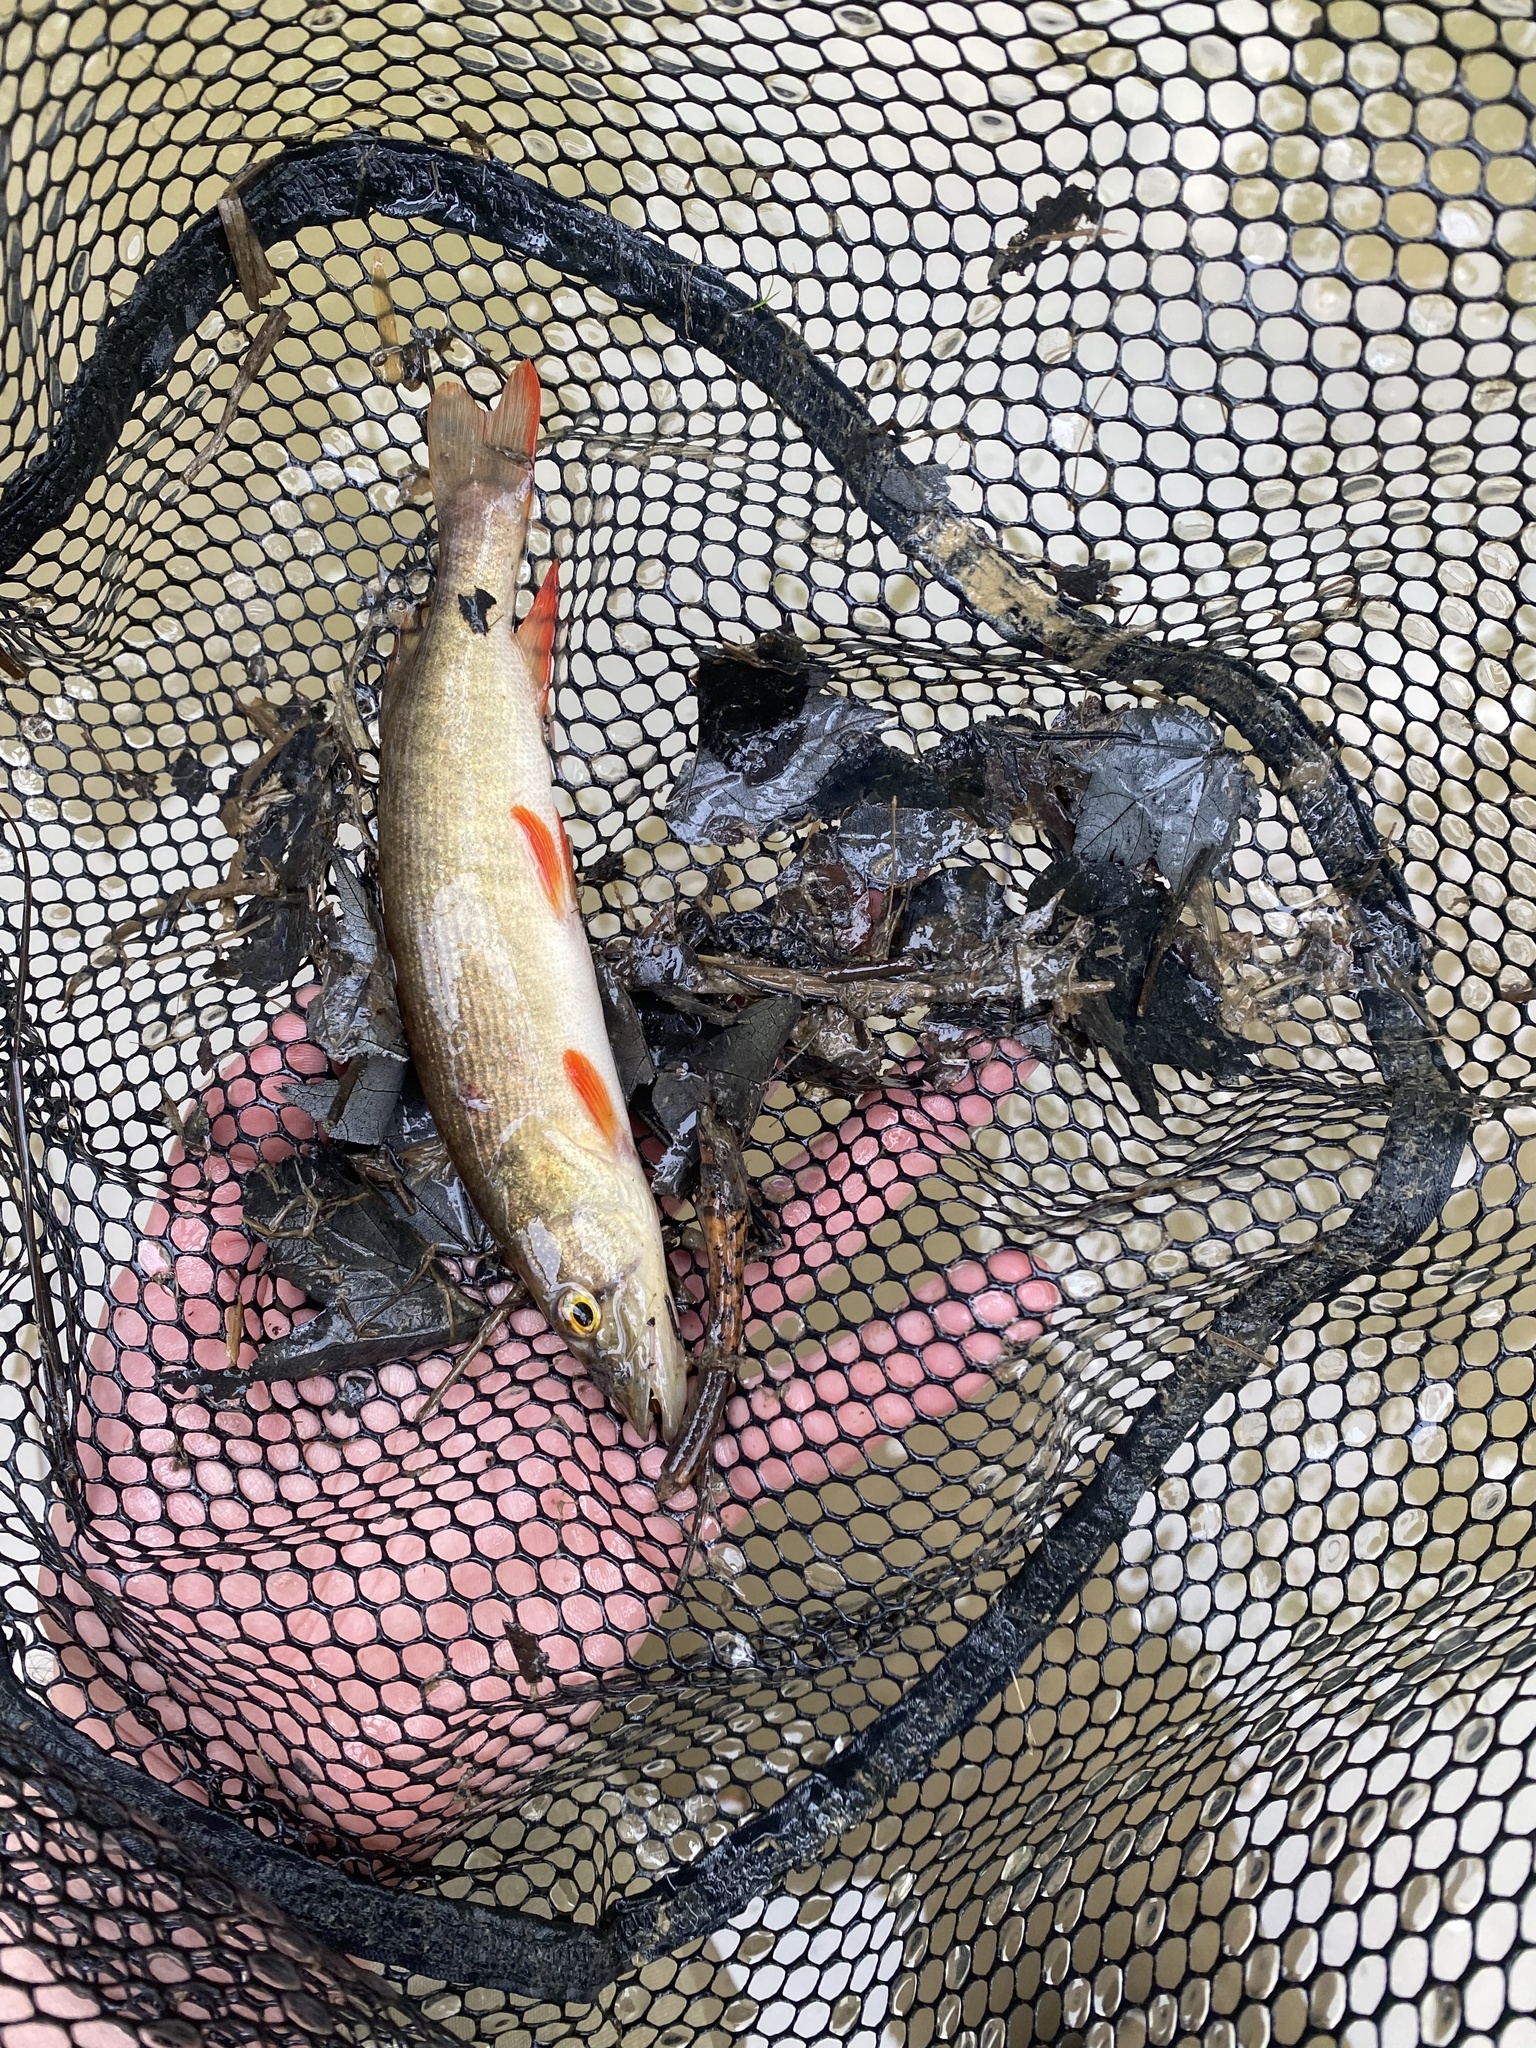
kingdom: Animalia
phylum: Chordata
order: Esociformes
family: Esocidae
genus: Esox
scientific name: Esox americanus
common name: Redfin pickerel
